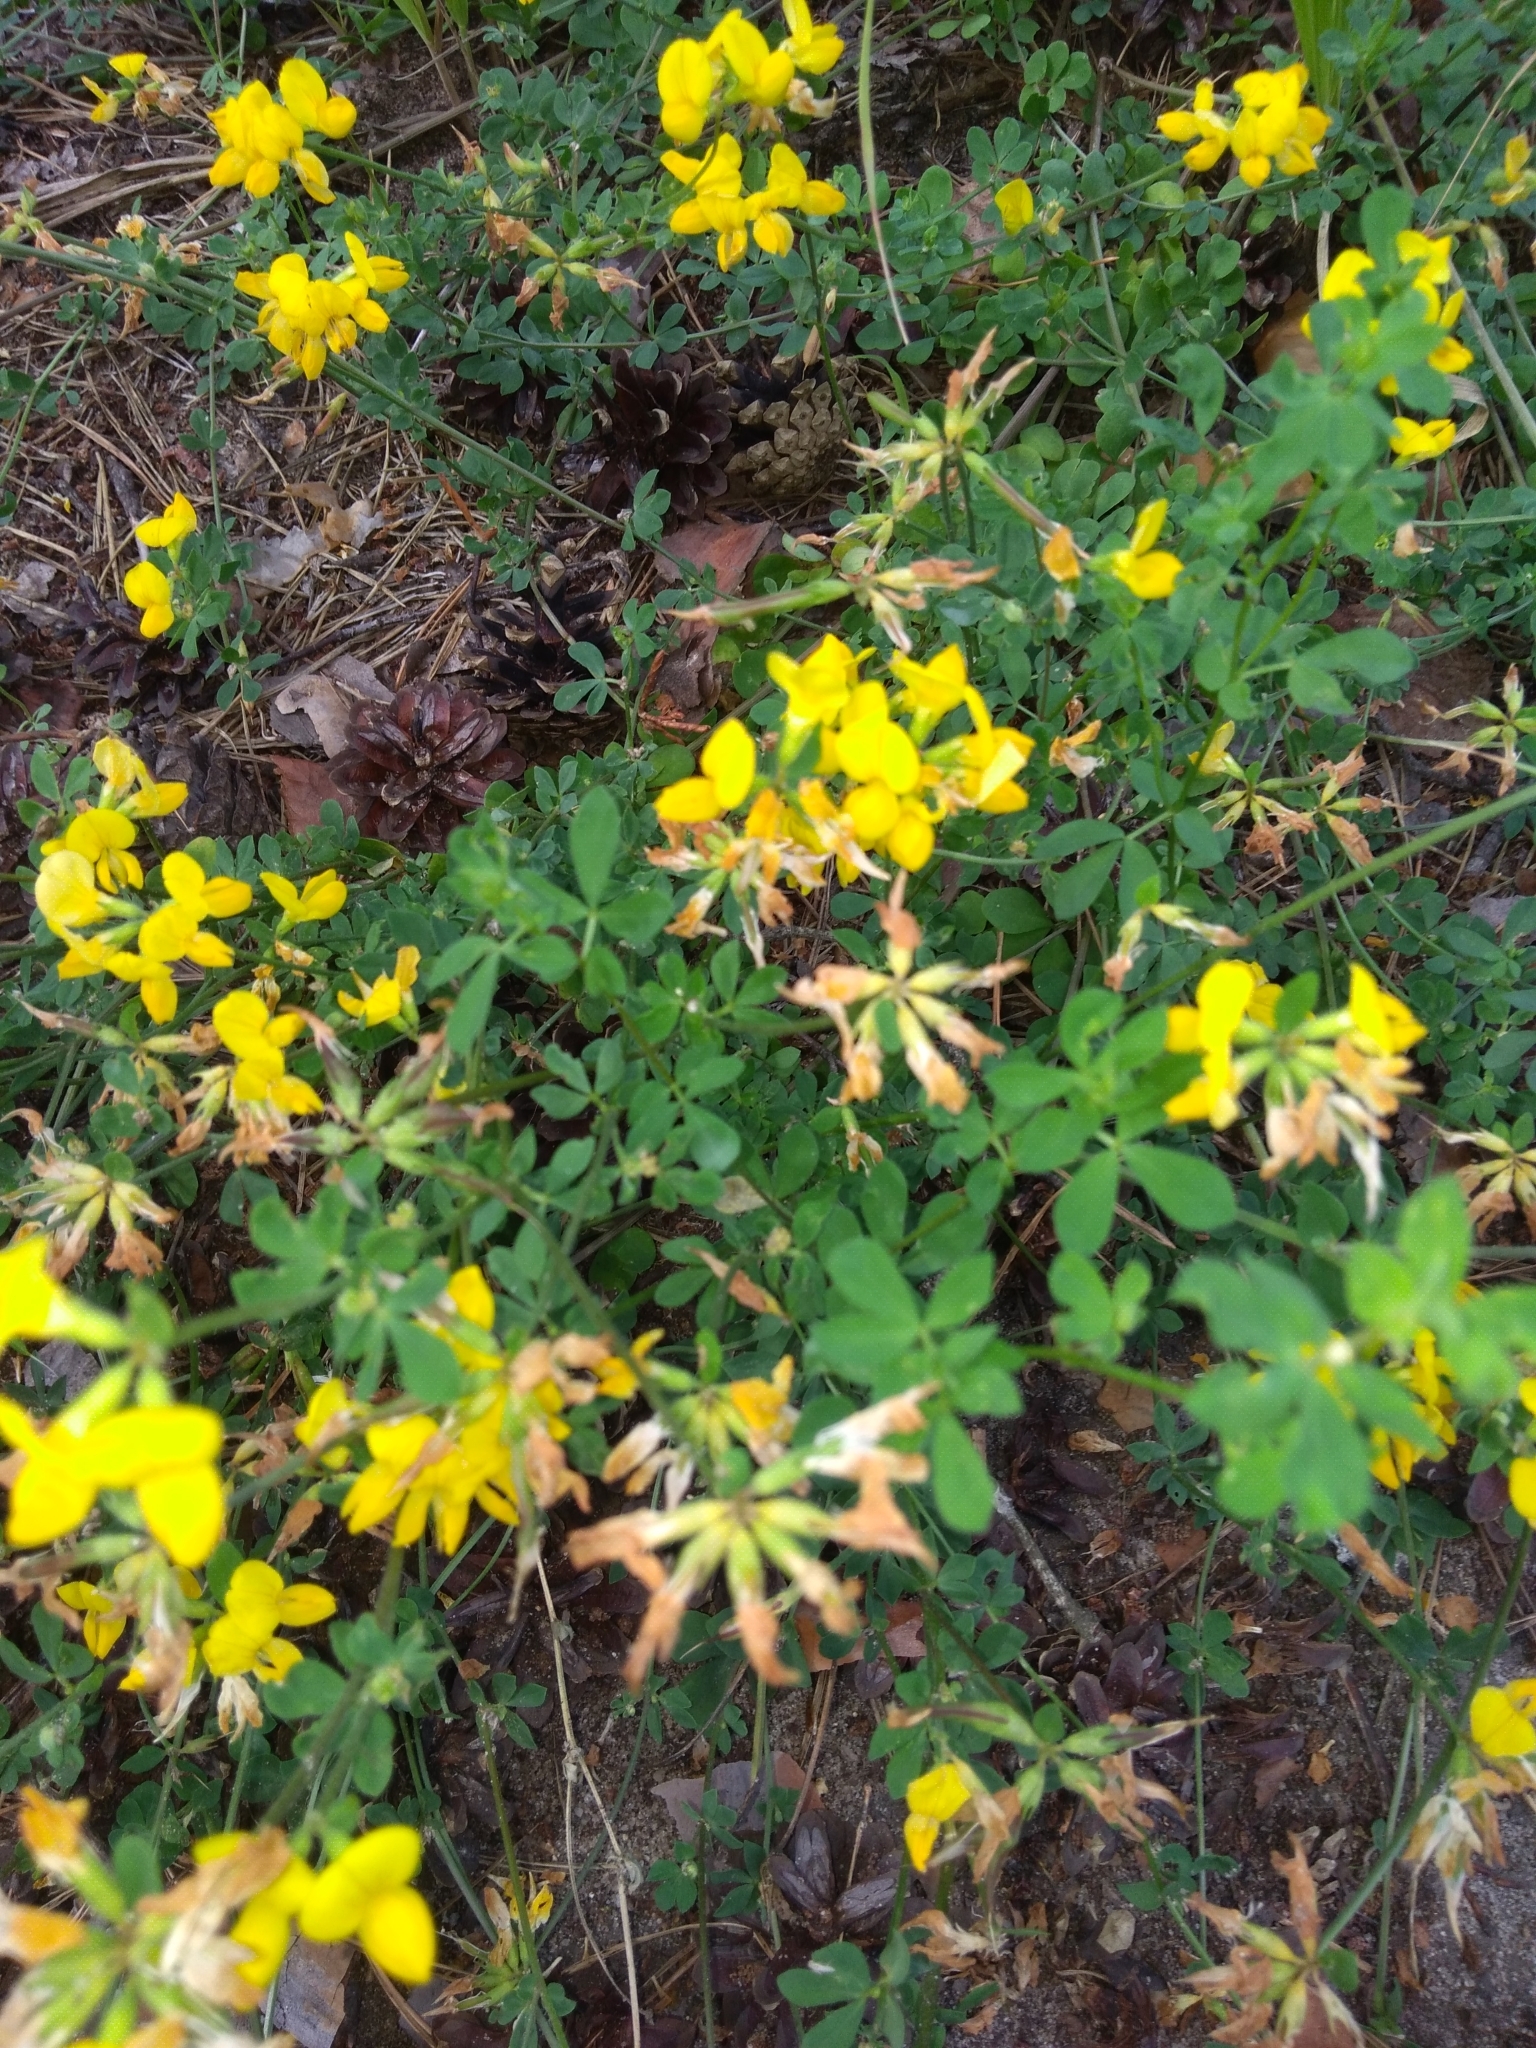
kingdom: Plantae
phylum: Tracheophyta
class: Magnoliopsida
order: Fabales
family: Fabaceae
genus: Lotus
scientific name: Lotus corniculatus
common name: Common bird's-foot-trefoil
